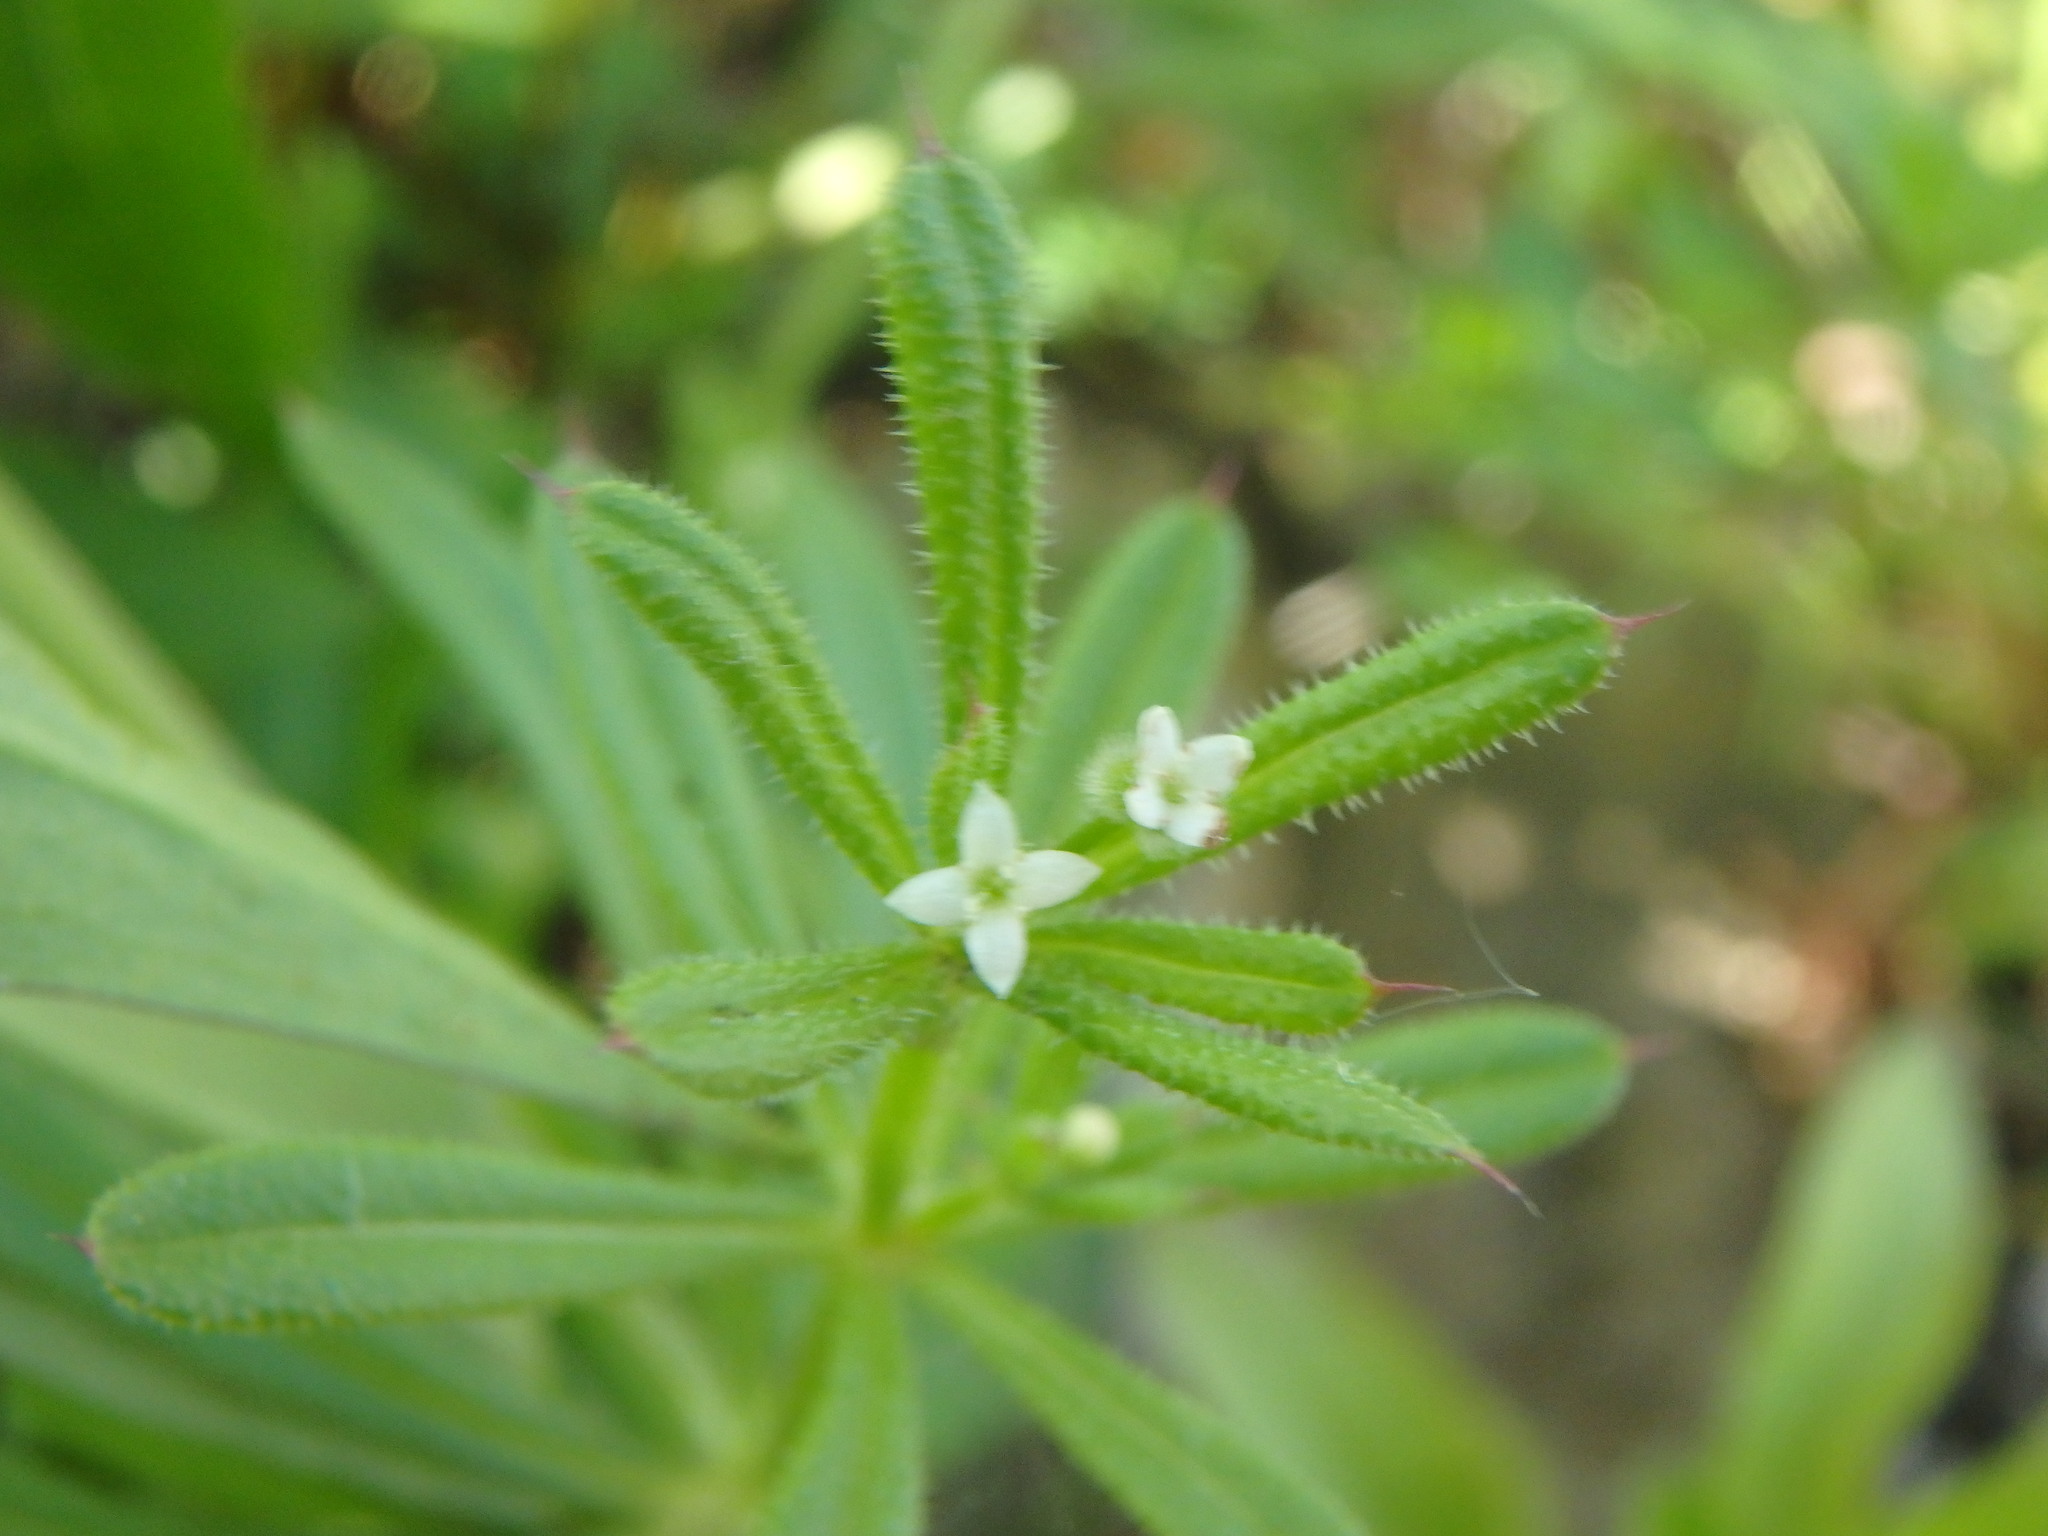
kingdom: Plantae
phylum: Tracheophyta
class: Magnoliopsida
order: Gentianales
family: Rubiaceae
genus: Galium
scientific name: Galium aparine
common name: Cleavers
